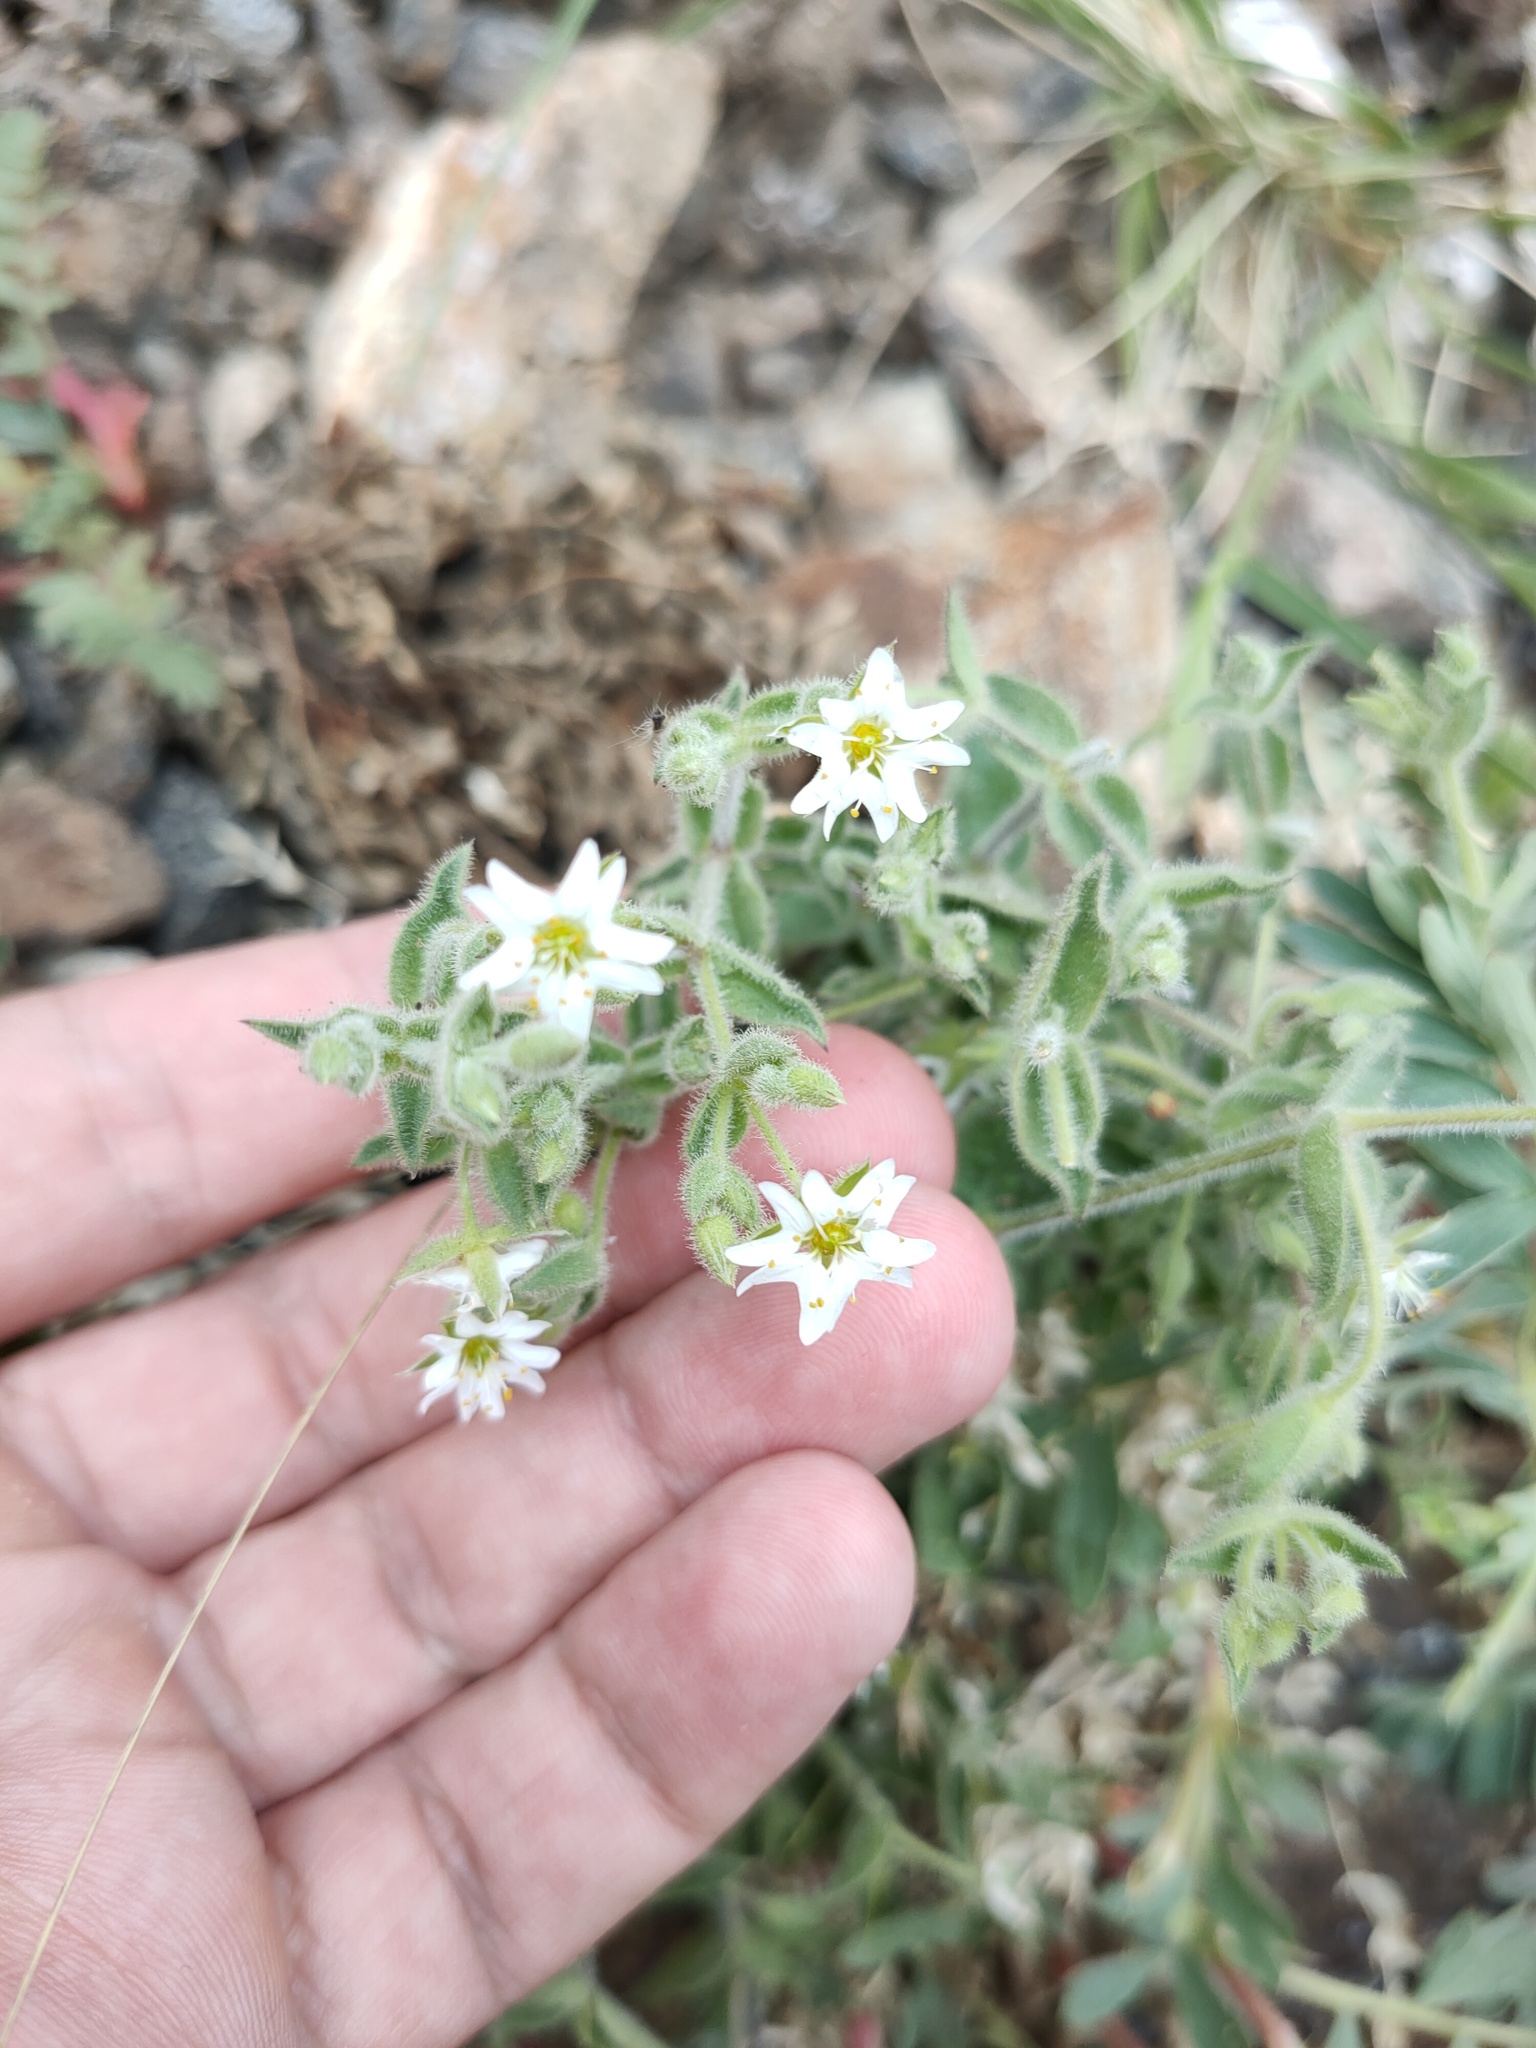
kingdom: Plantae
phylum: Tracheophyta
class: Magnoliopsida
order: Caryophyllales
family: Caryophyllaceae
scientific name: Caryophyllaceae
